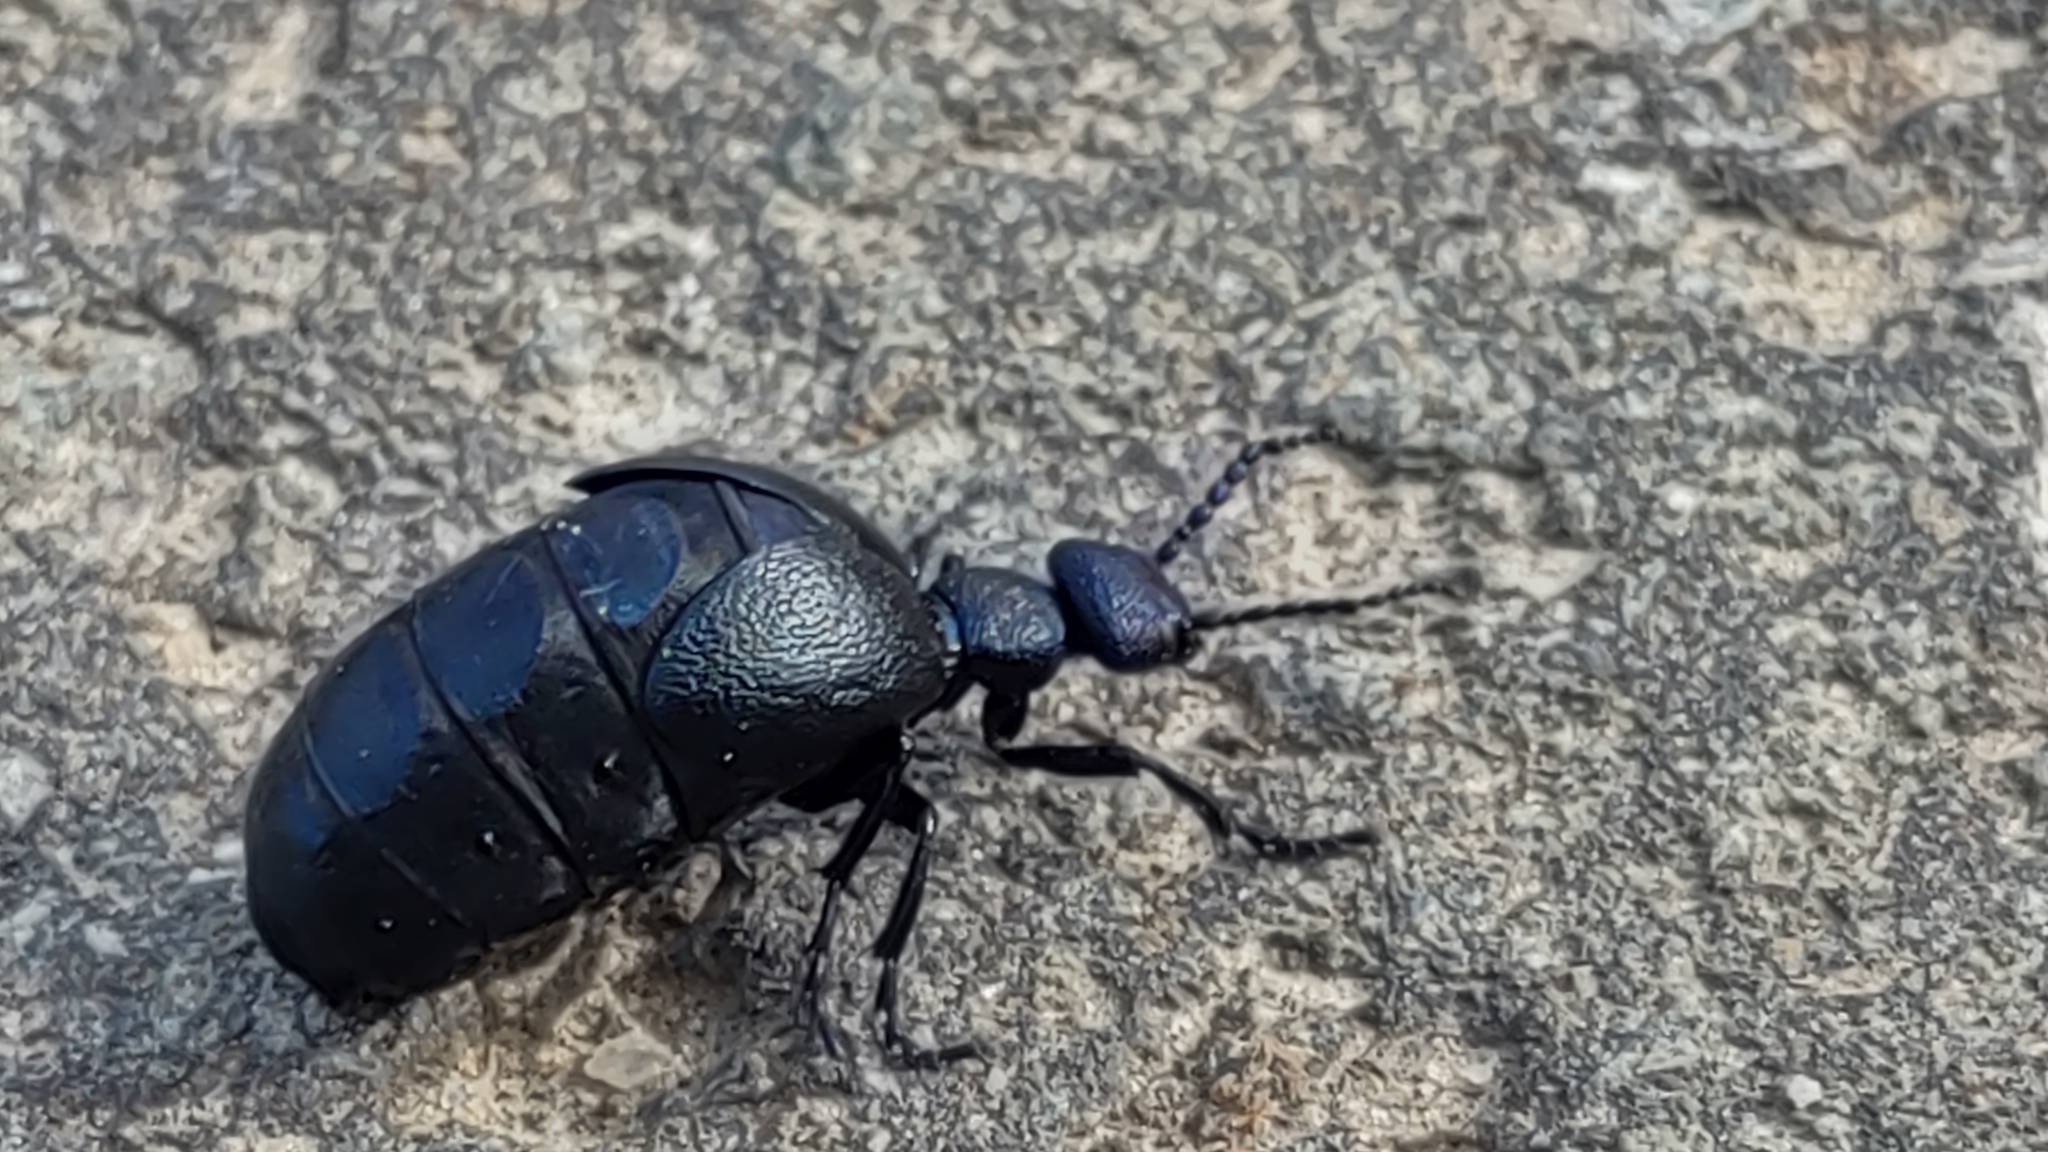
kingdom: Animalia
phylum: Arthropoda
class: Insecta
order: Coleoptera
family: Meloidae
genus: Meloe
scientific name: Meloe proscarabaeus
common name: Black oil-beetle
